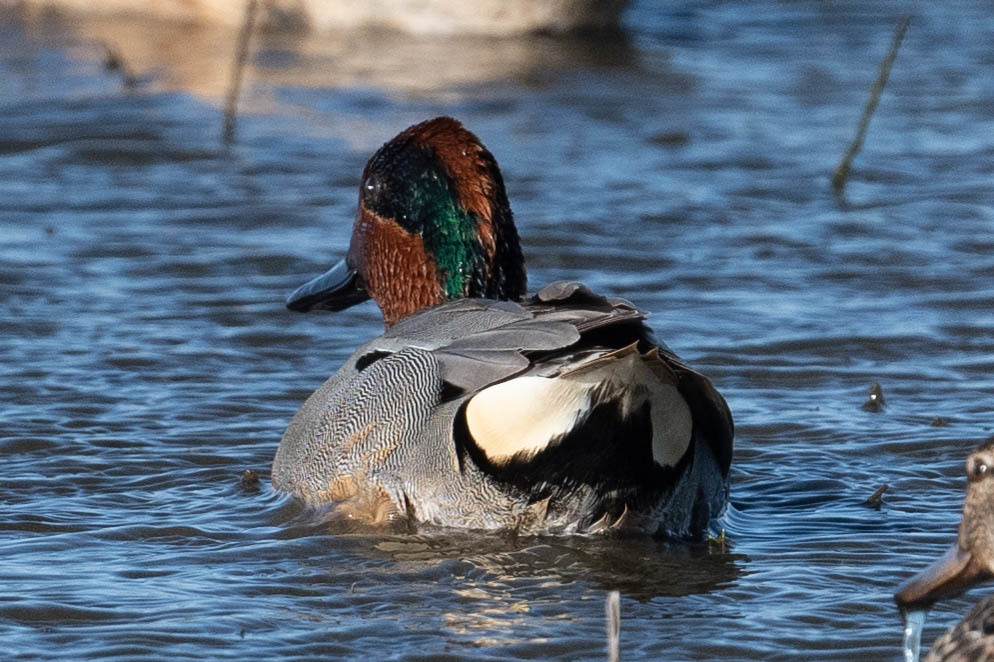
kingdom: Animalia
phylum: Chordata
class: Aves
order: Anseriformes
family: Anatidae
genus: Anas
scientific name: Anas crecca
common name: Eurasian teal
